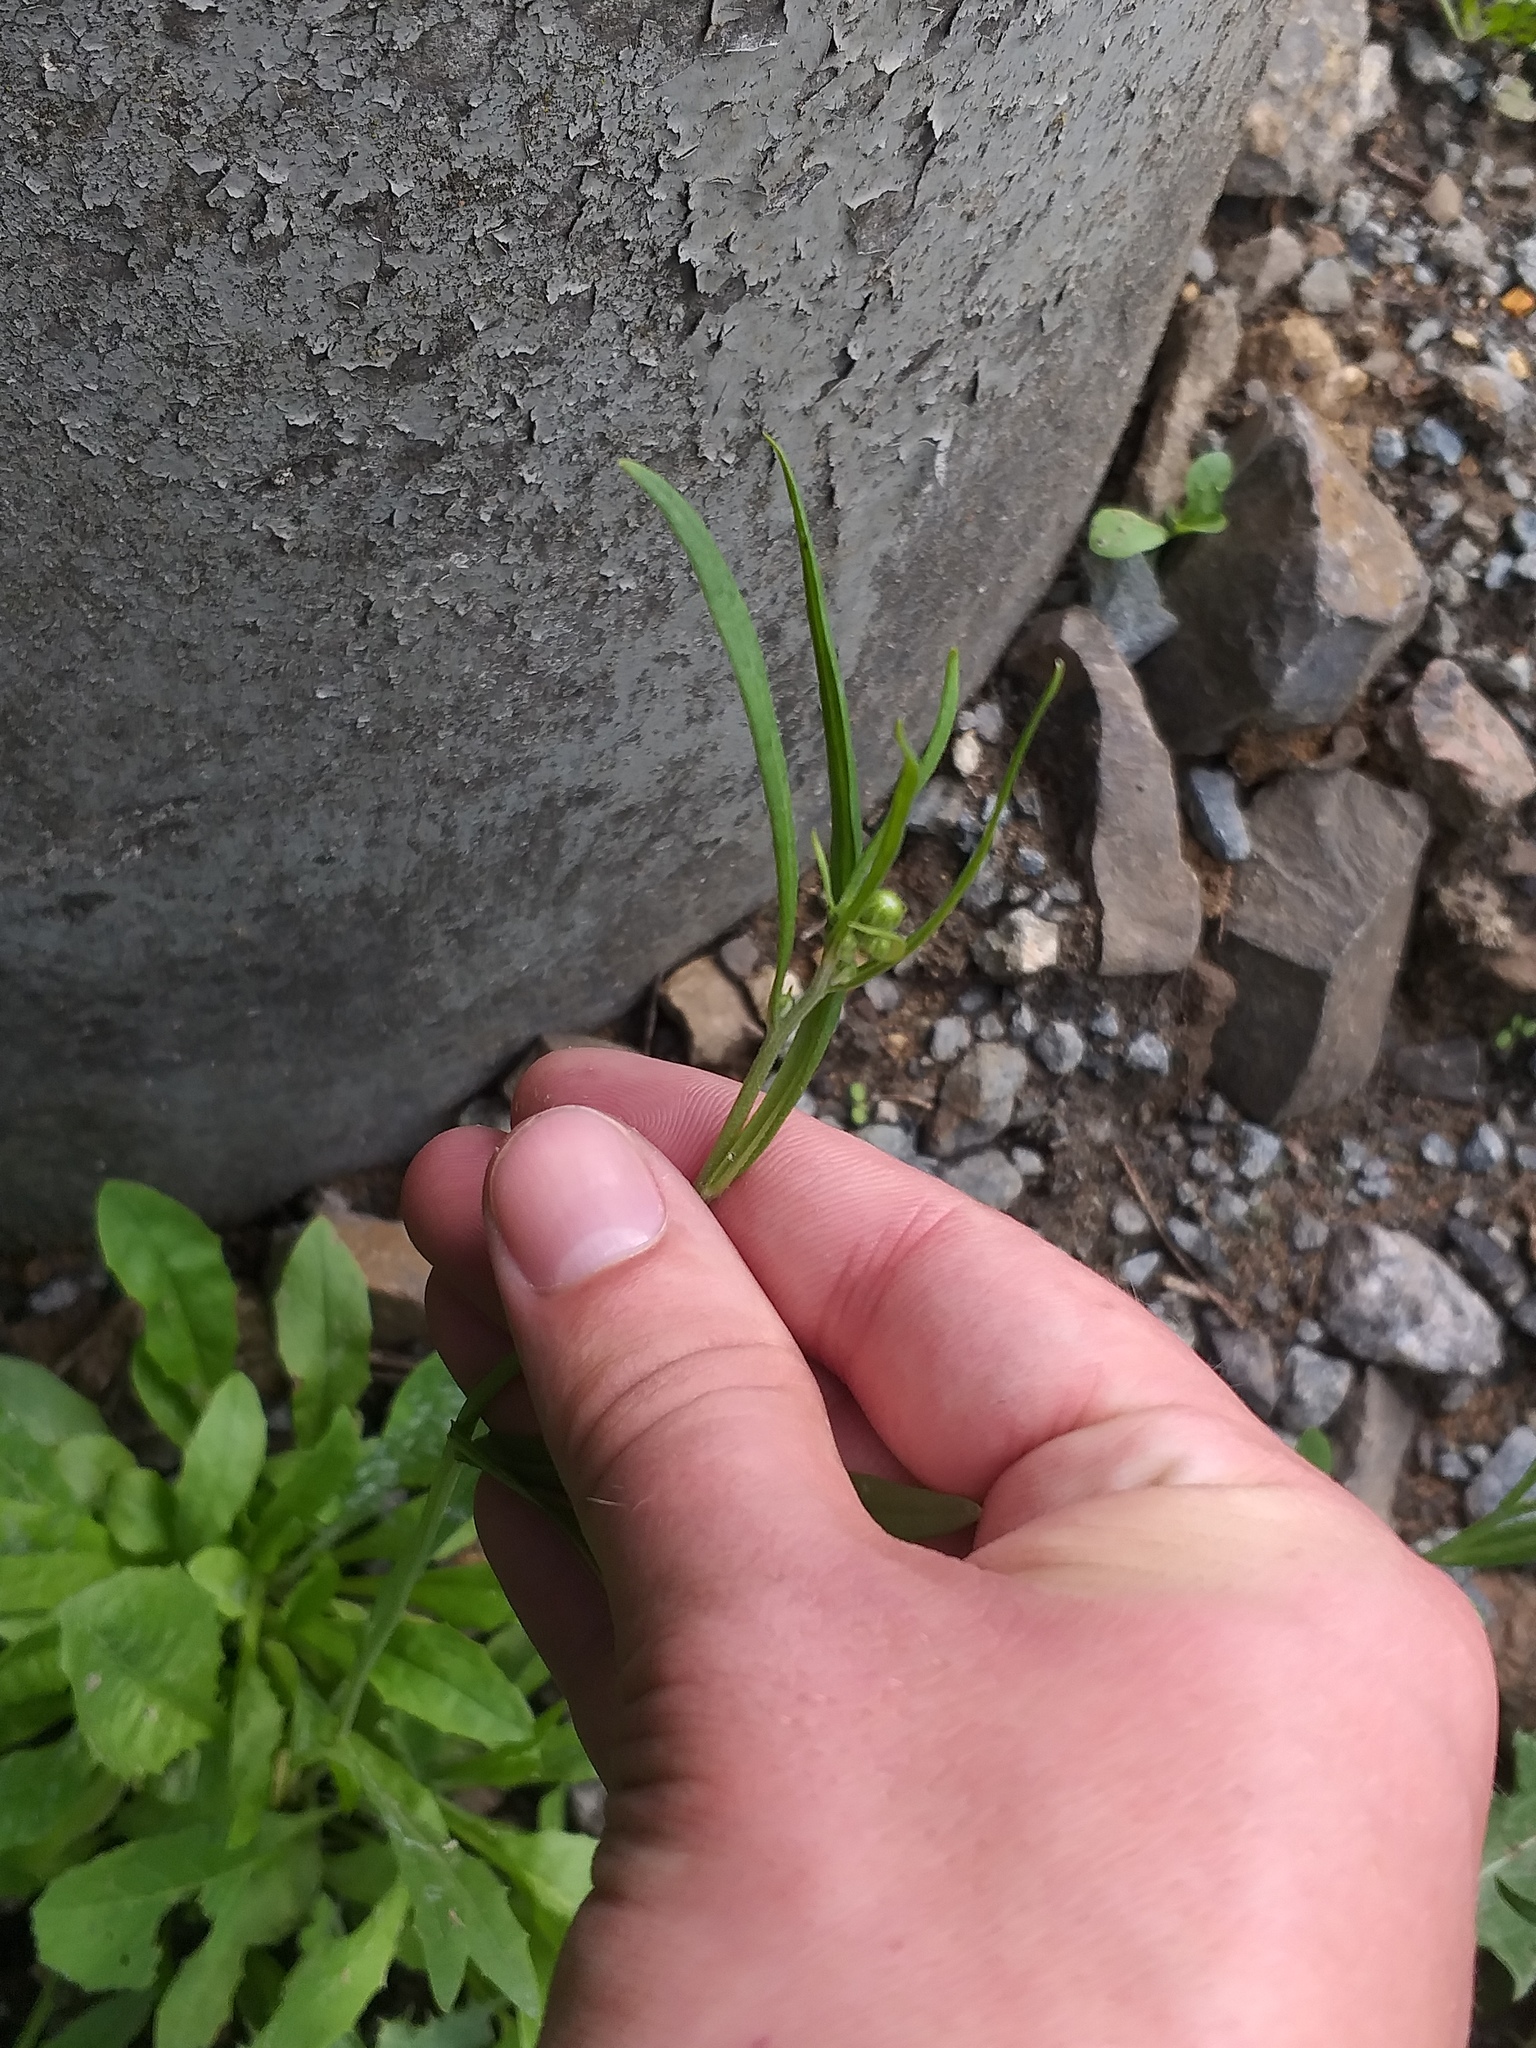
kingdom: Plantae
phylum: Tracheophyta
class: Magnoliopsida
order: Asterales
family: Asteraceae
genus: Crepis
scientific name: Crepis tectorum
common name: Narrow-leaved hawk's-beard
